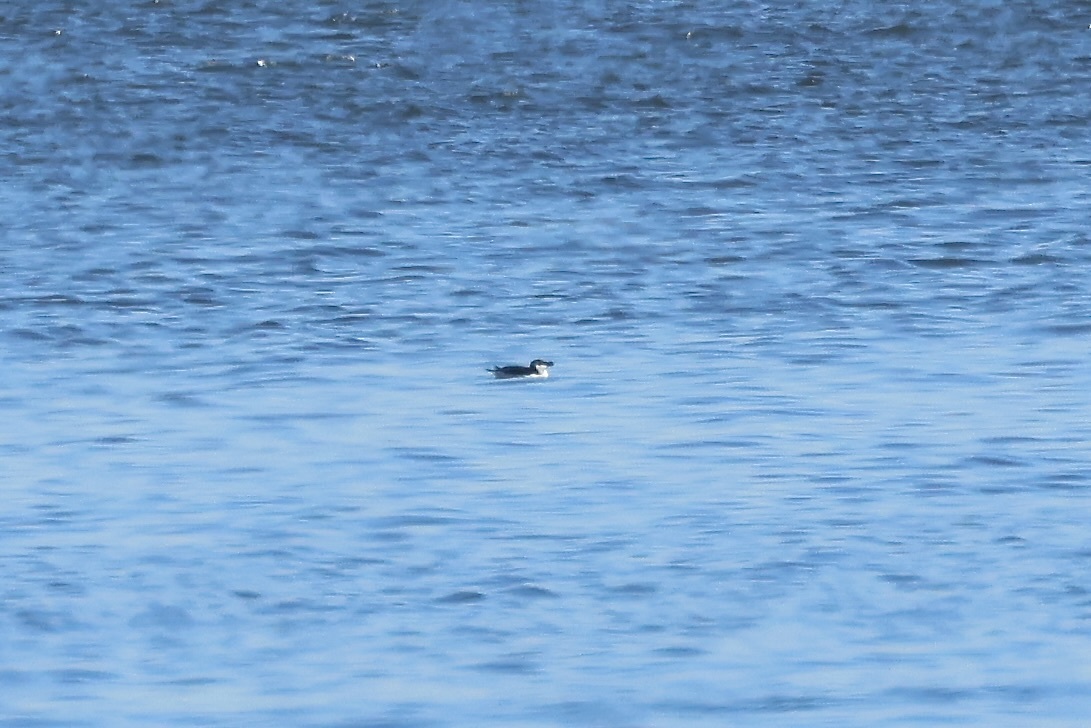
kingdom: Animalia
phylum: Chordata
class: Aves
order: Charadriiformes
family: Alcidae
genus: Alca
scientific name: Alca torda
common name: Razorbill
